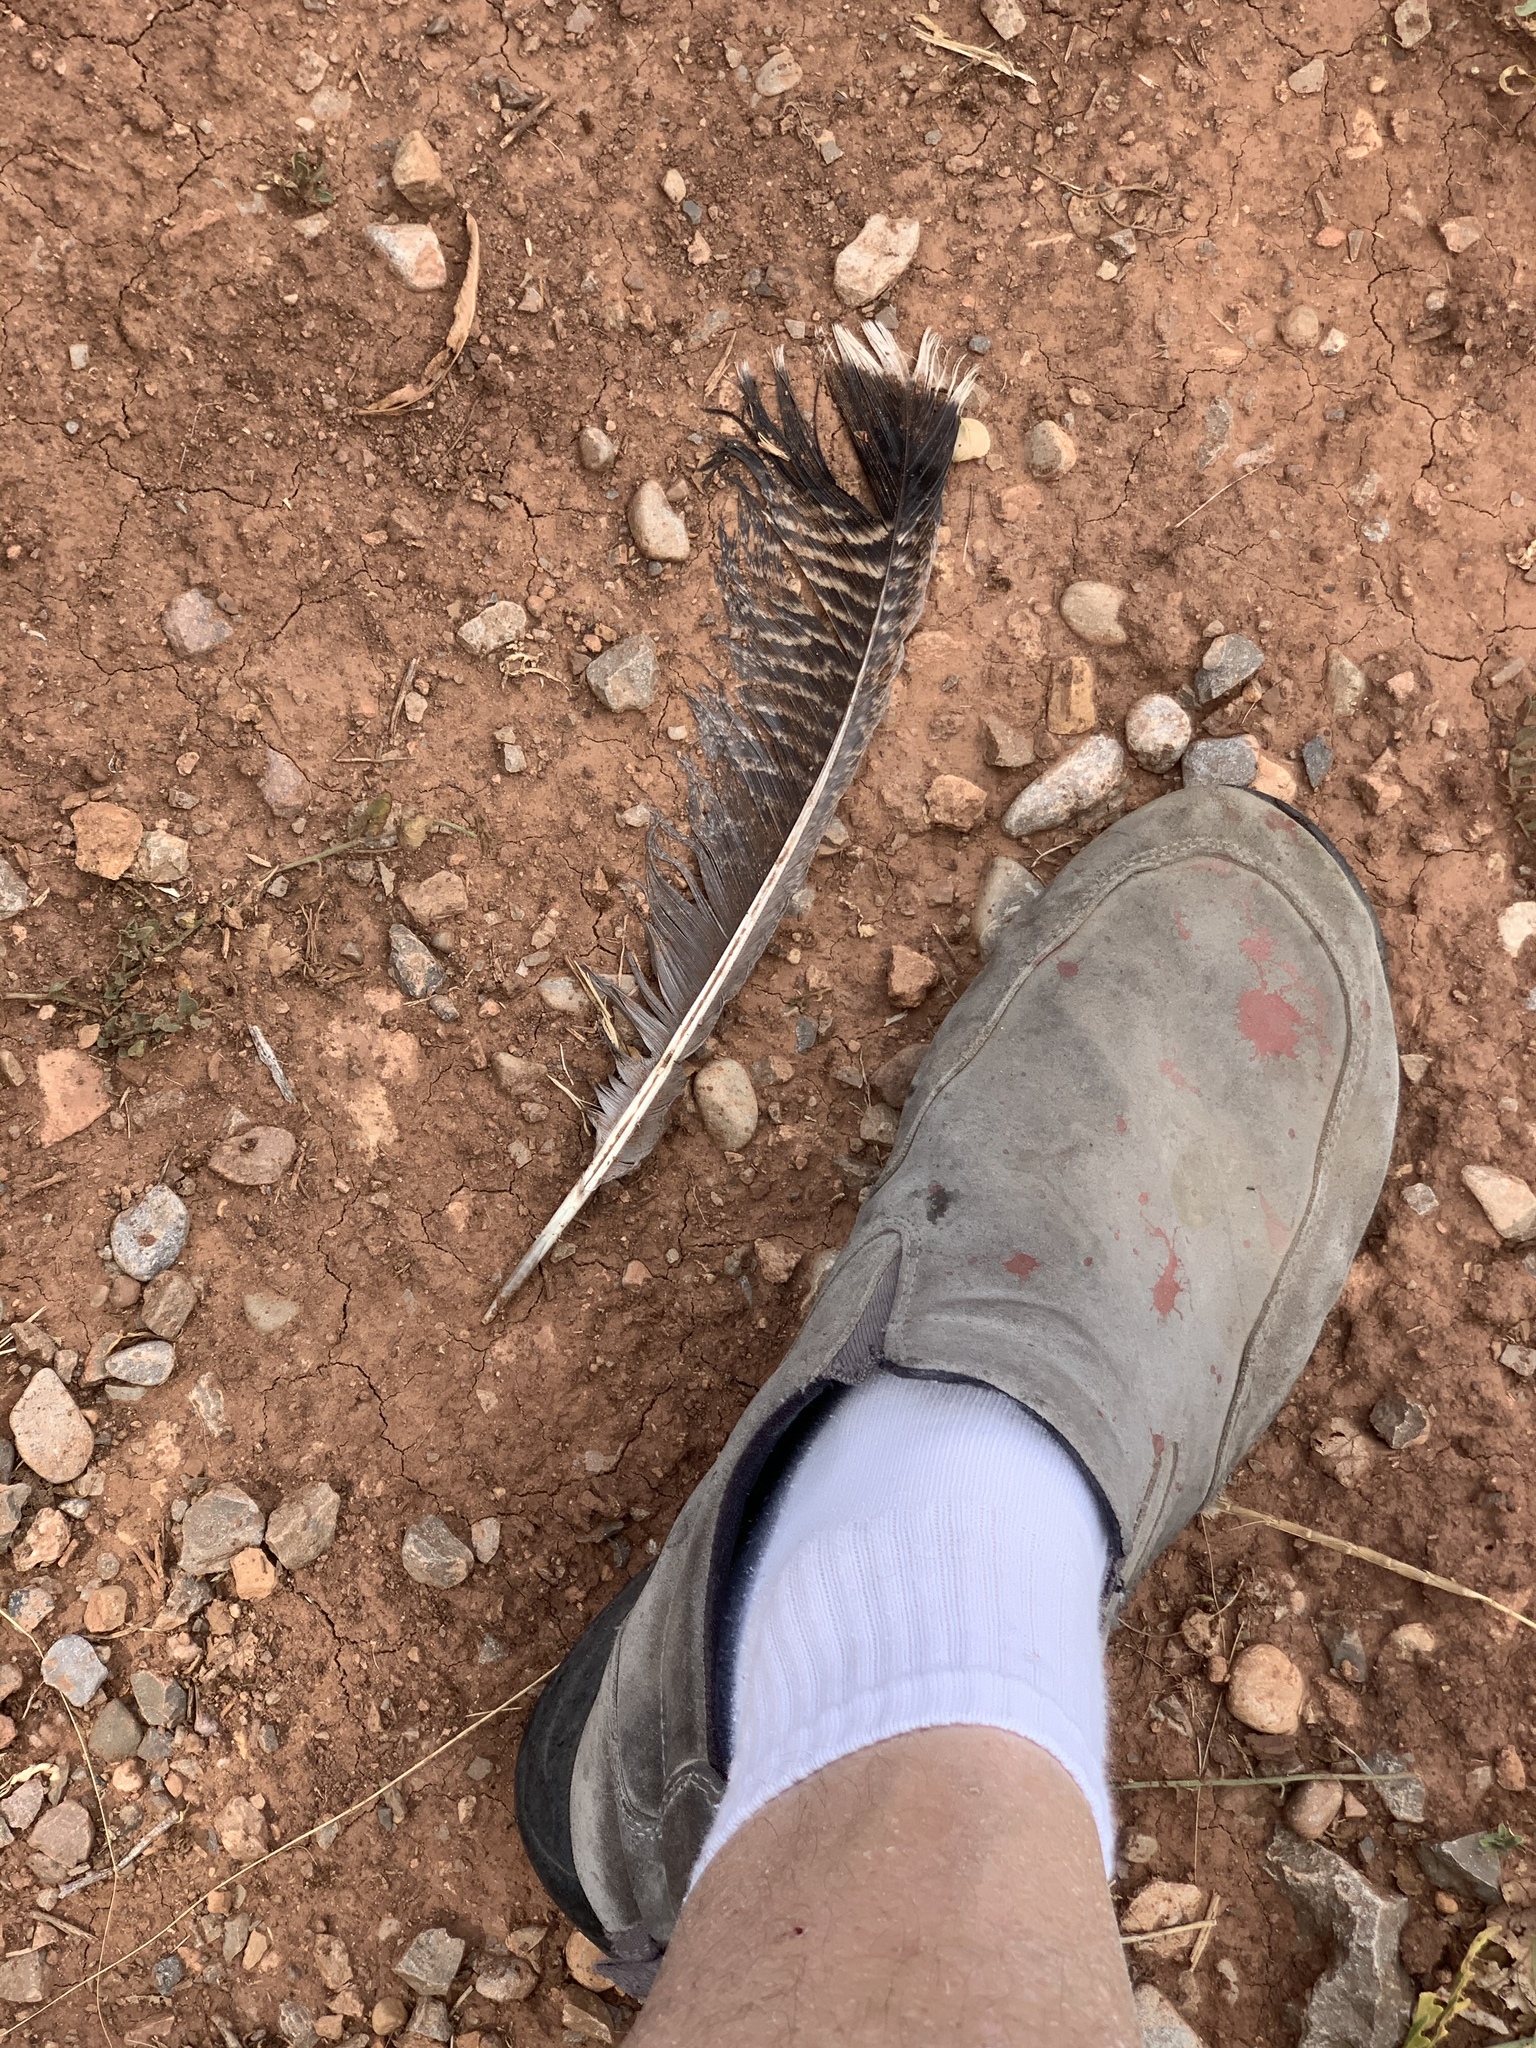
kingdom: Animalia
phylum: Chordata
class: Aves
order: Galliformes
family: Phasianidae
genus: Meleagris
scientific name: Meleagris gallopavo
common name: Wild turkey
